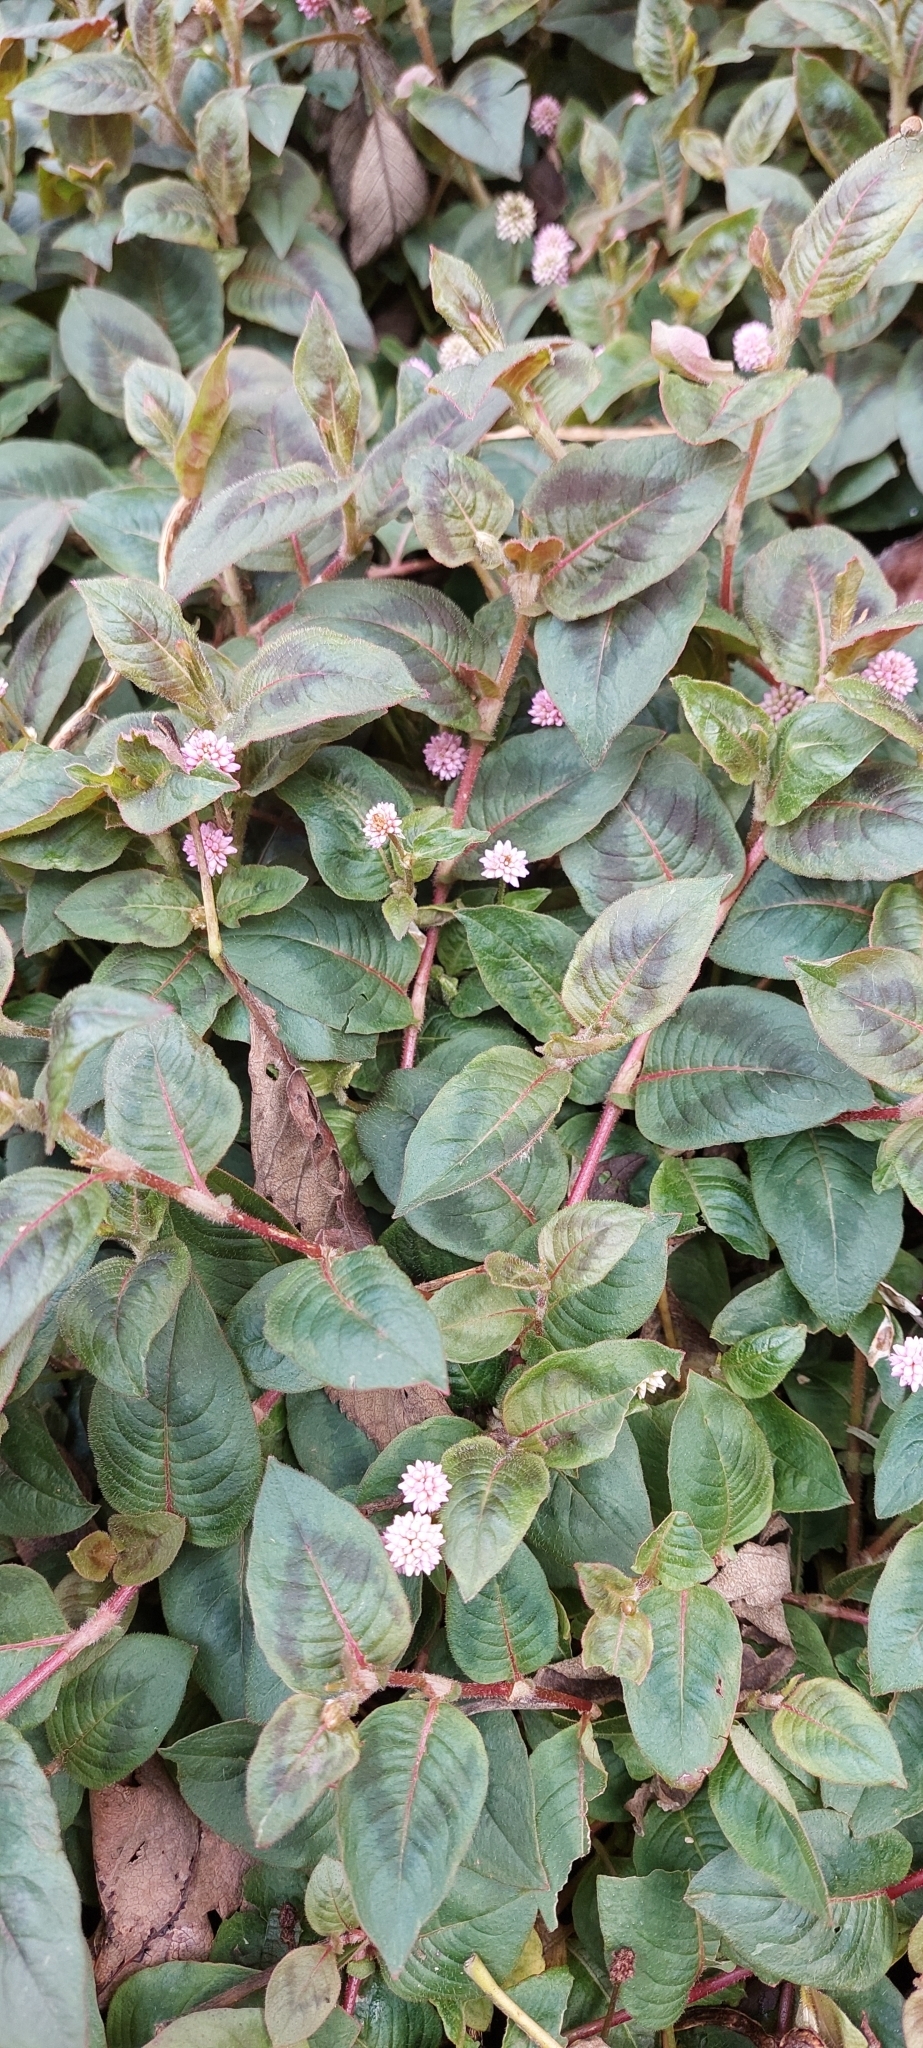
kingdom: Plantae
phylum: Tracheophyta
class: Magnoliopsida
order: Caryophyllales
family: Polygonaceae
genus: Persicaria
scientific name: Persicaria capitata
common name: Pinkhead smartweed
